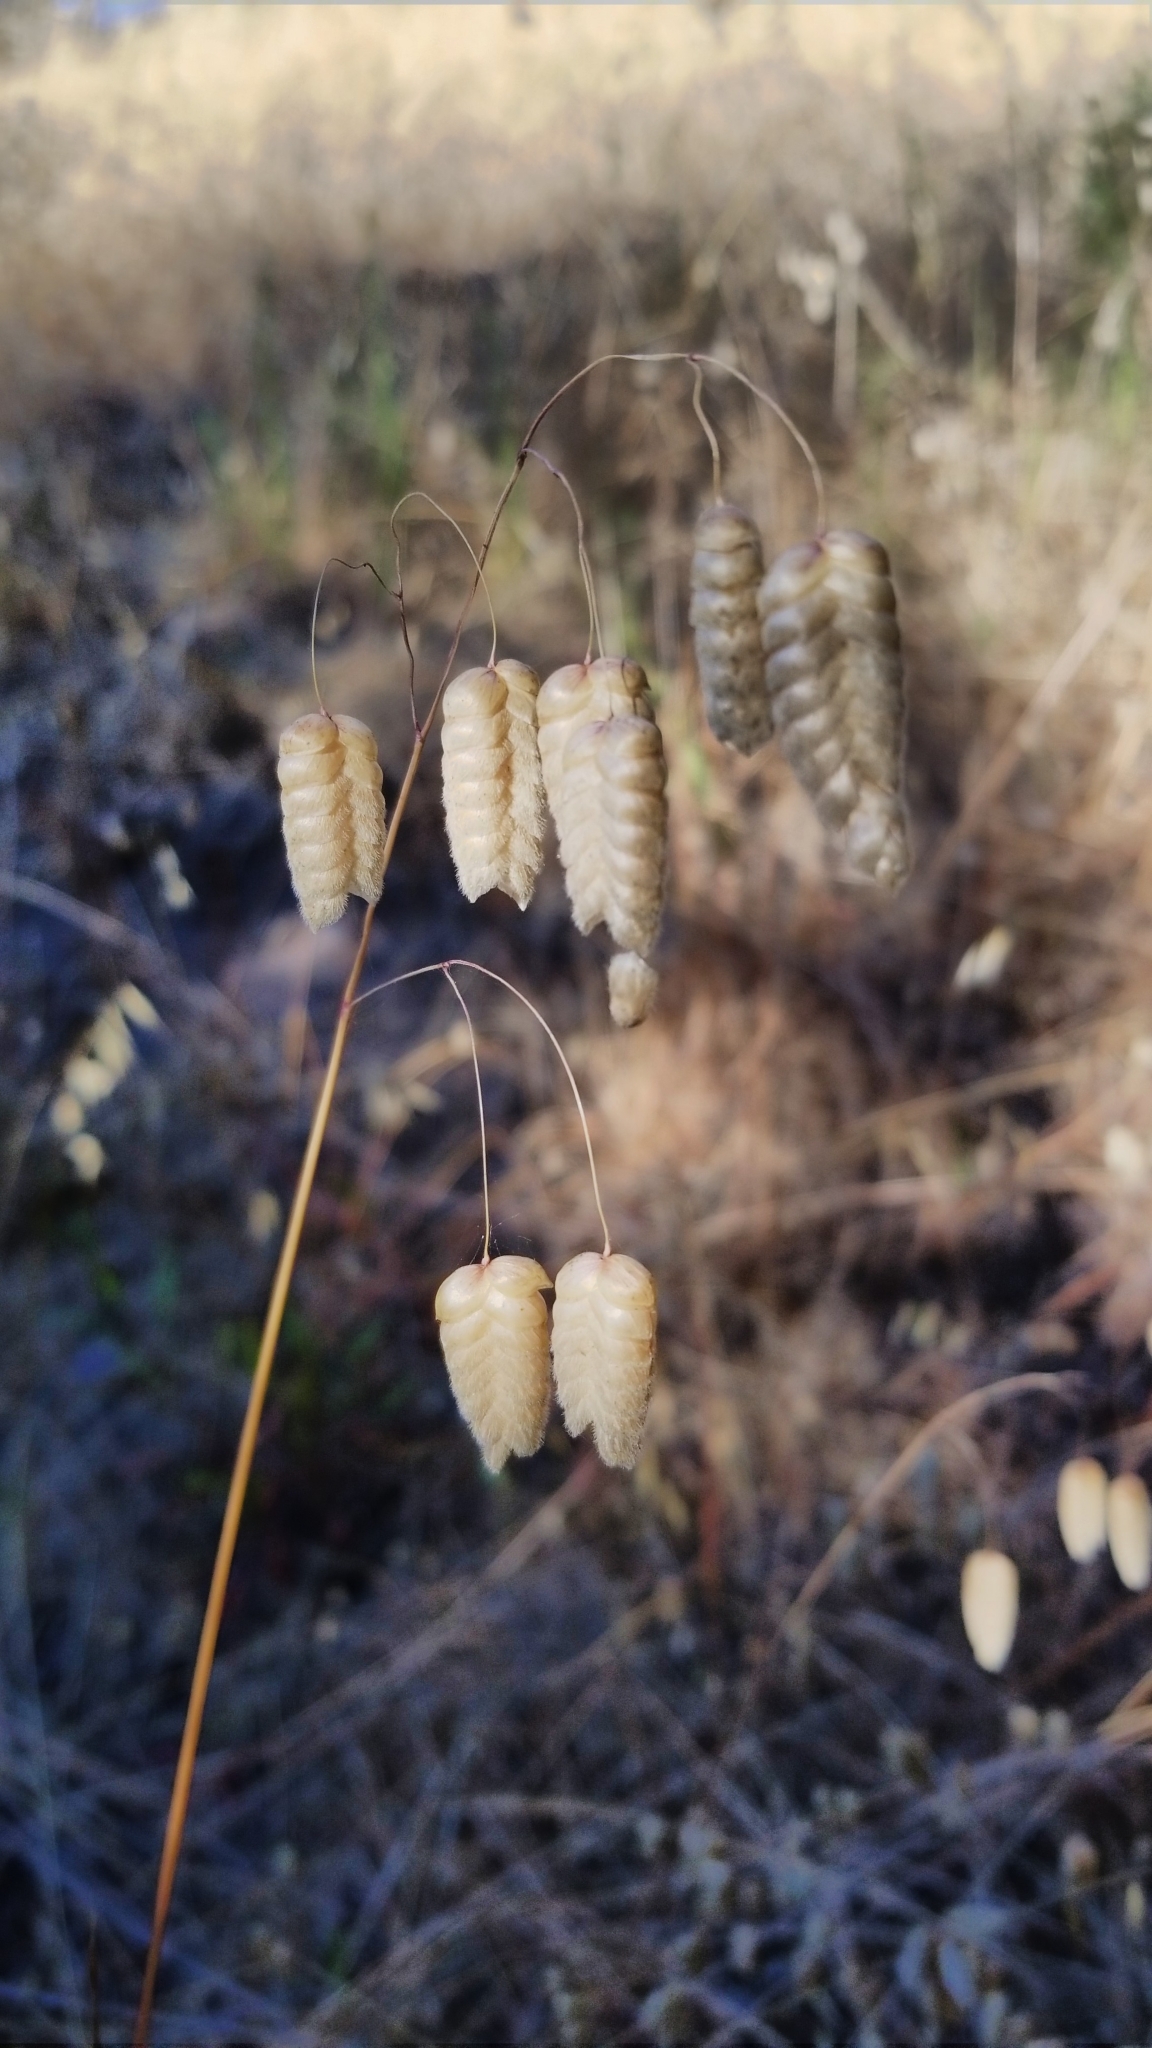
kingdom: Plantae
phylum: Tracheophyta
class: Liliopsida
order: Poales
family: Poaceae
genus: Briza
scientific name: Briza maxima
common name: Big quakinggrass
